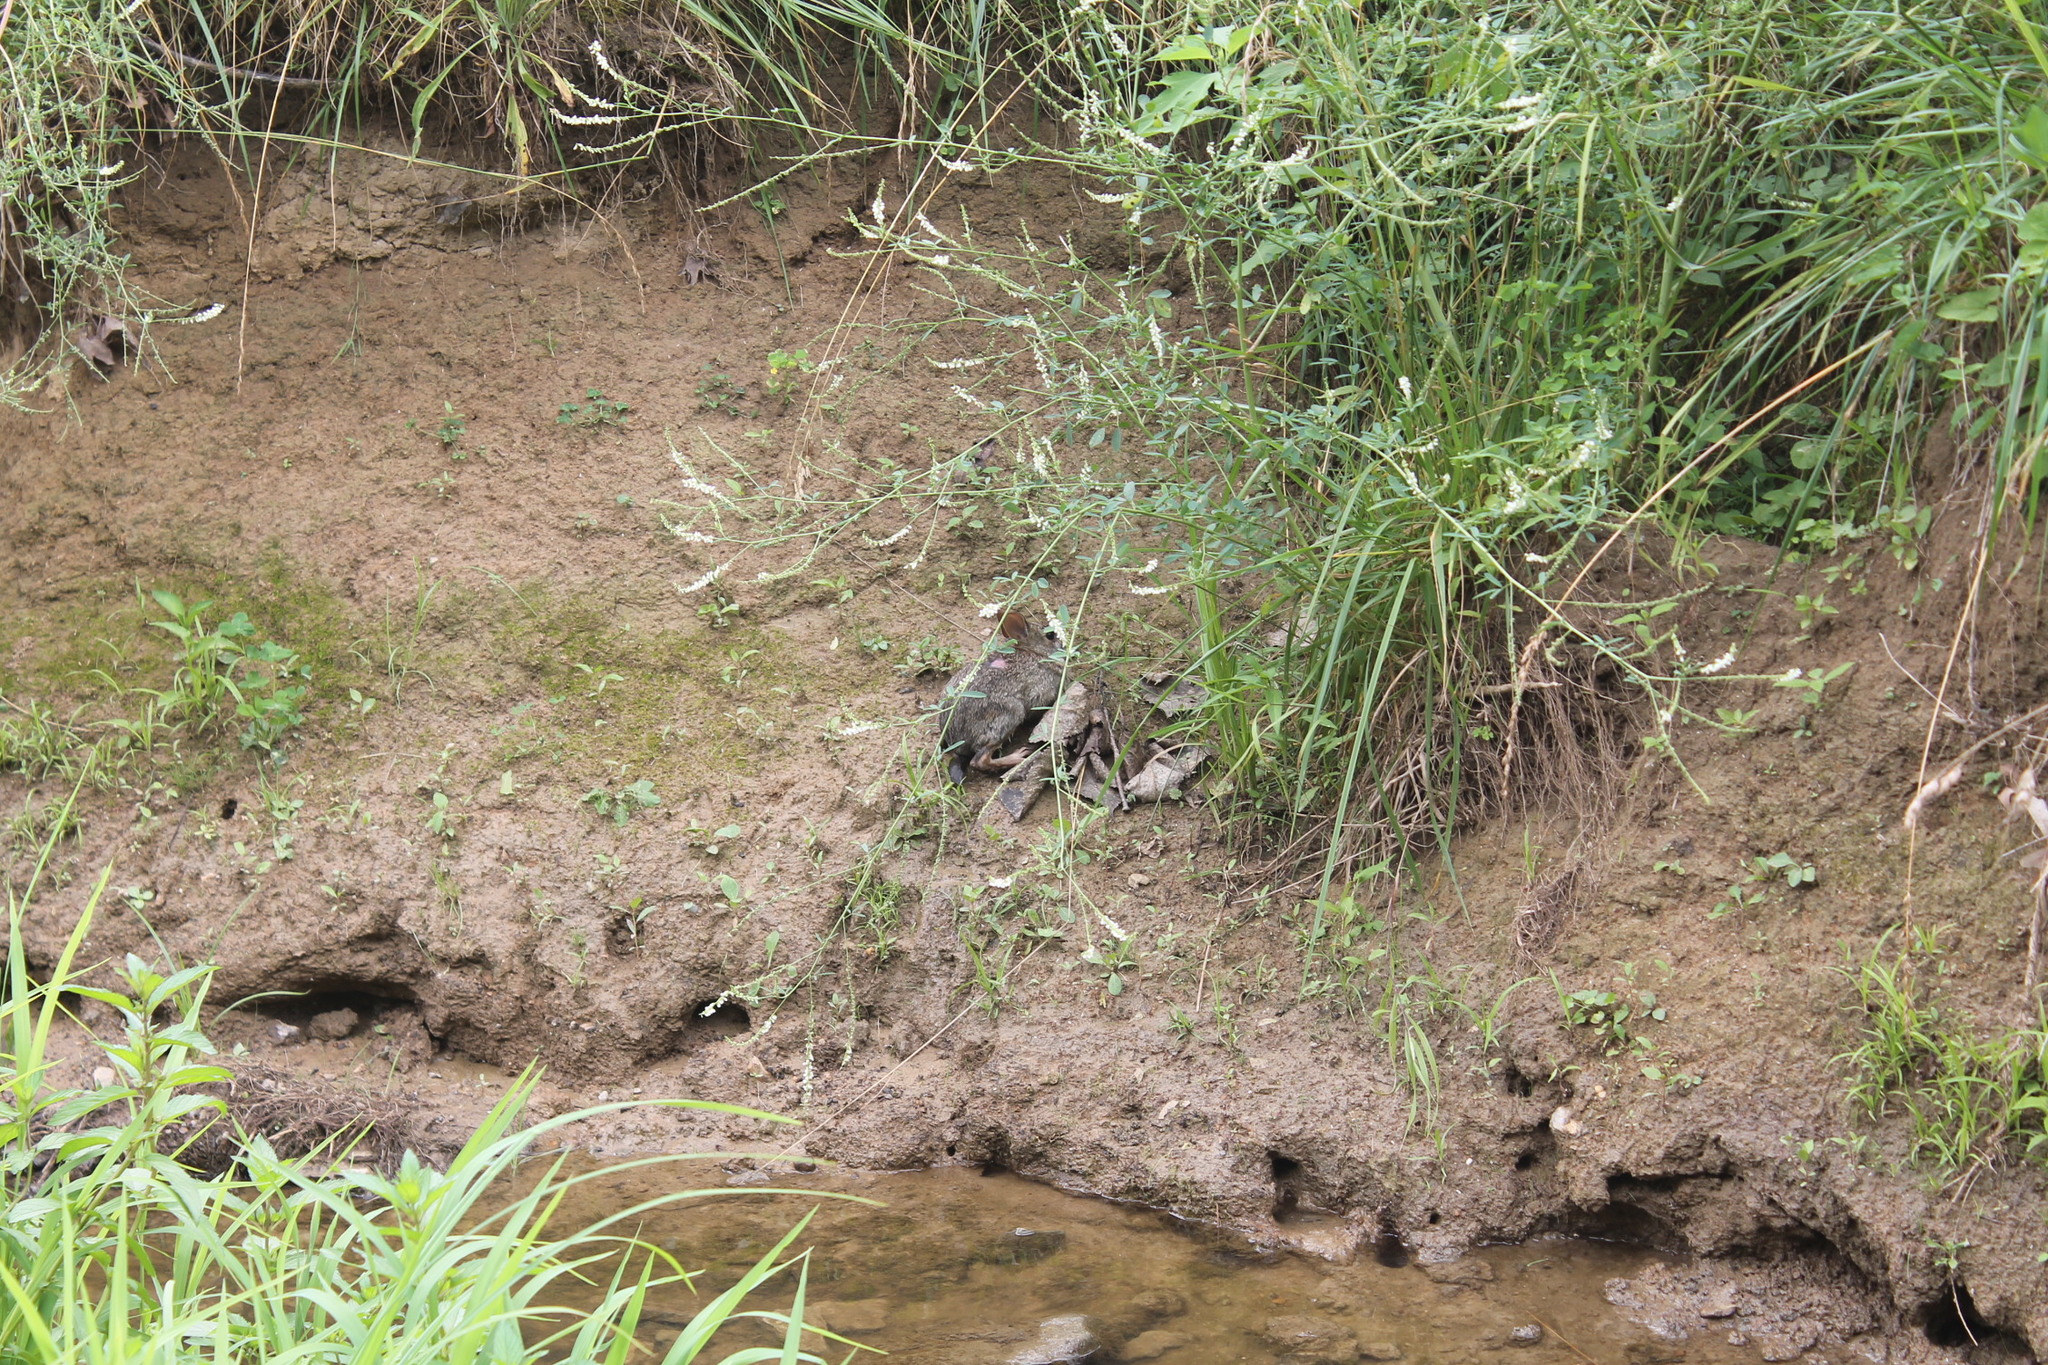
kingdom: Animalia
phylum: Chordata
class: Mammalia
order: Lagomorpha
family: Leporidae
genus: Sylvilagus
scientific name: Sylvilagus floridanus
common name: Eastern cottontail
